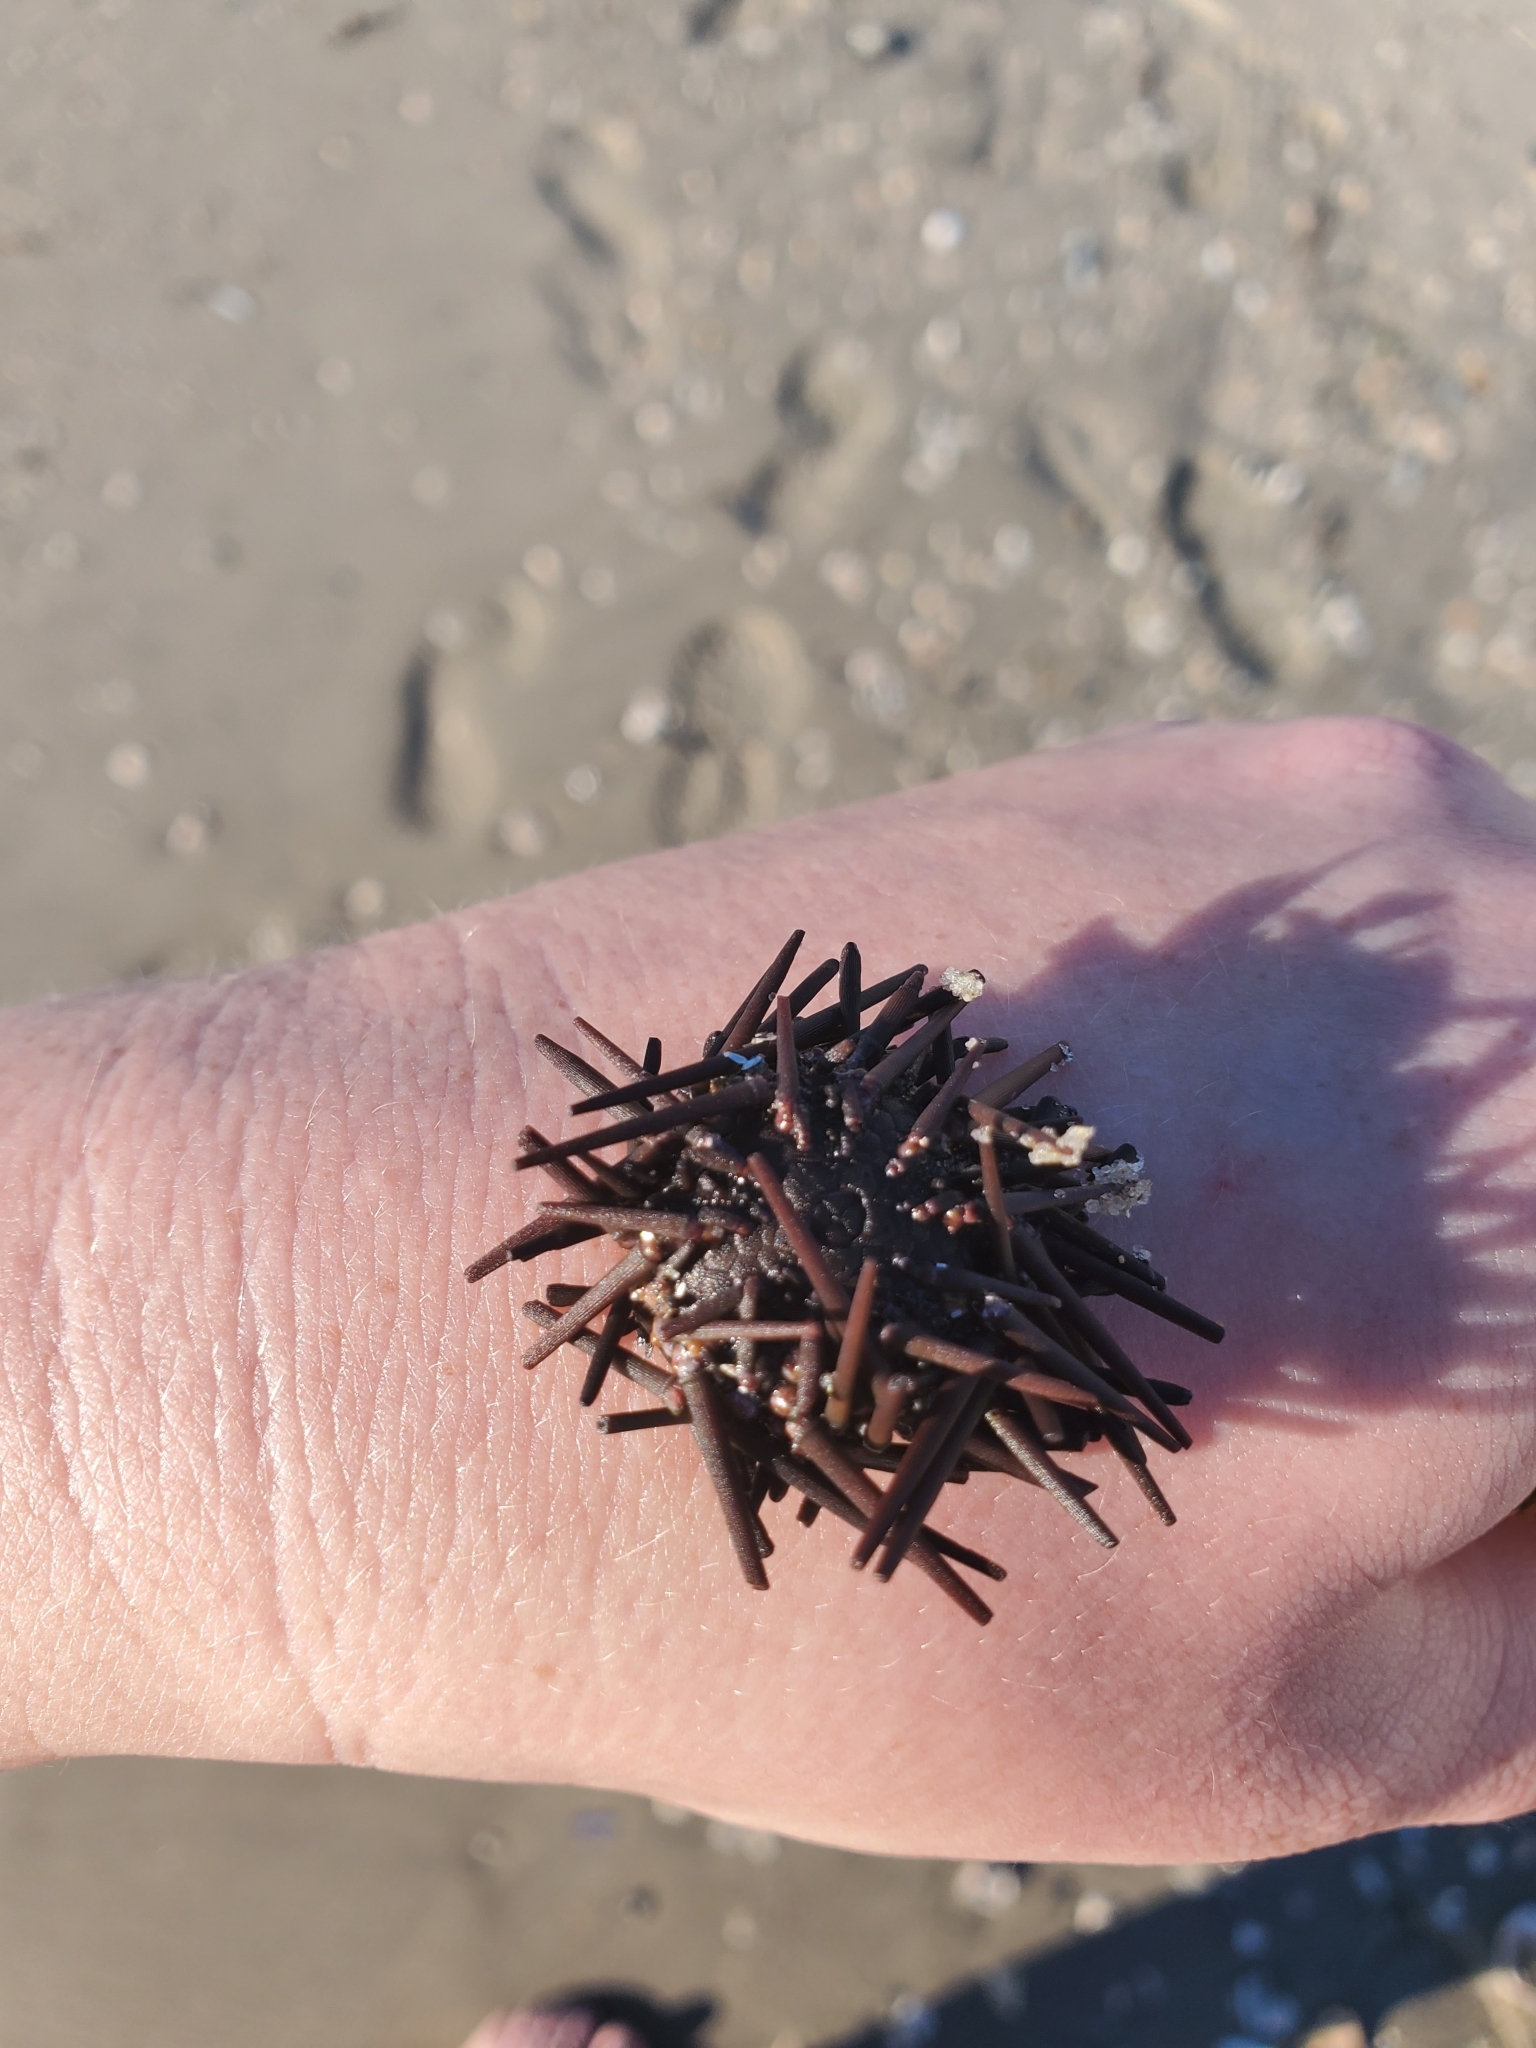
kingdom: Animalia
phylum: Echinodermata
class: Echinoidea
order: Arbacioida
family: Arbaciidae
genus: Arbacia
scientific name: Arbacia punctulata
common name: Purple-spined sea urchin
